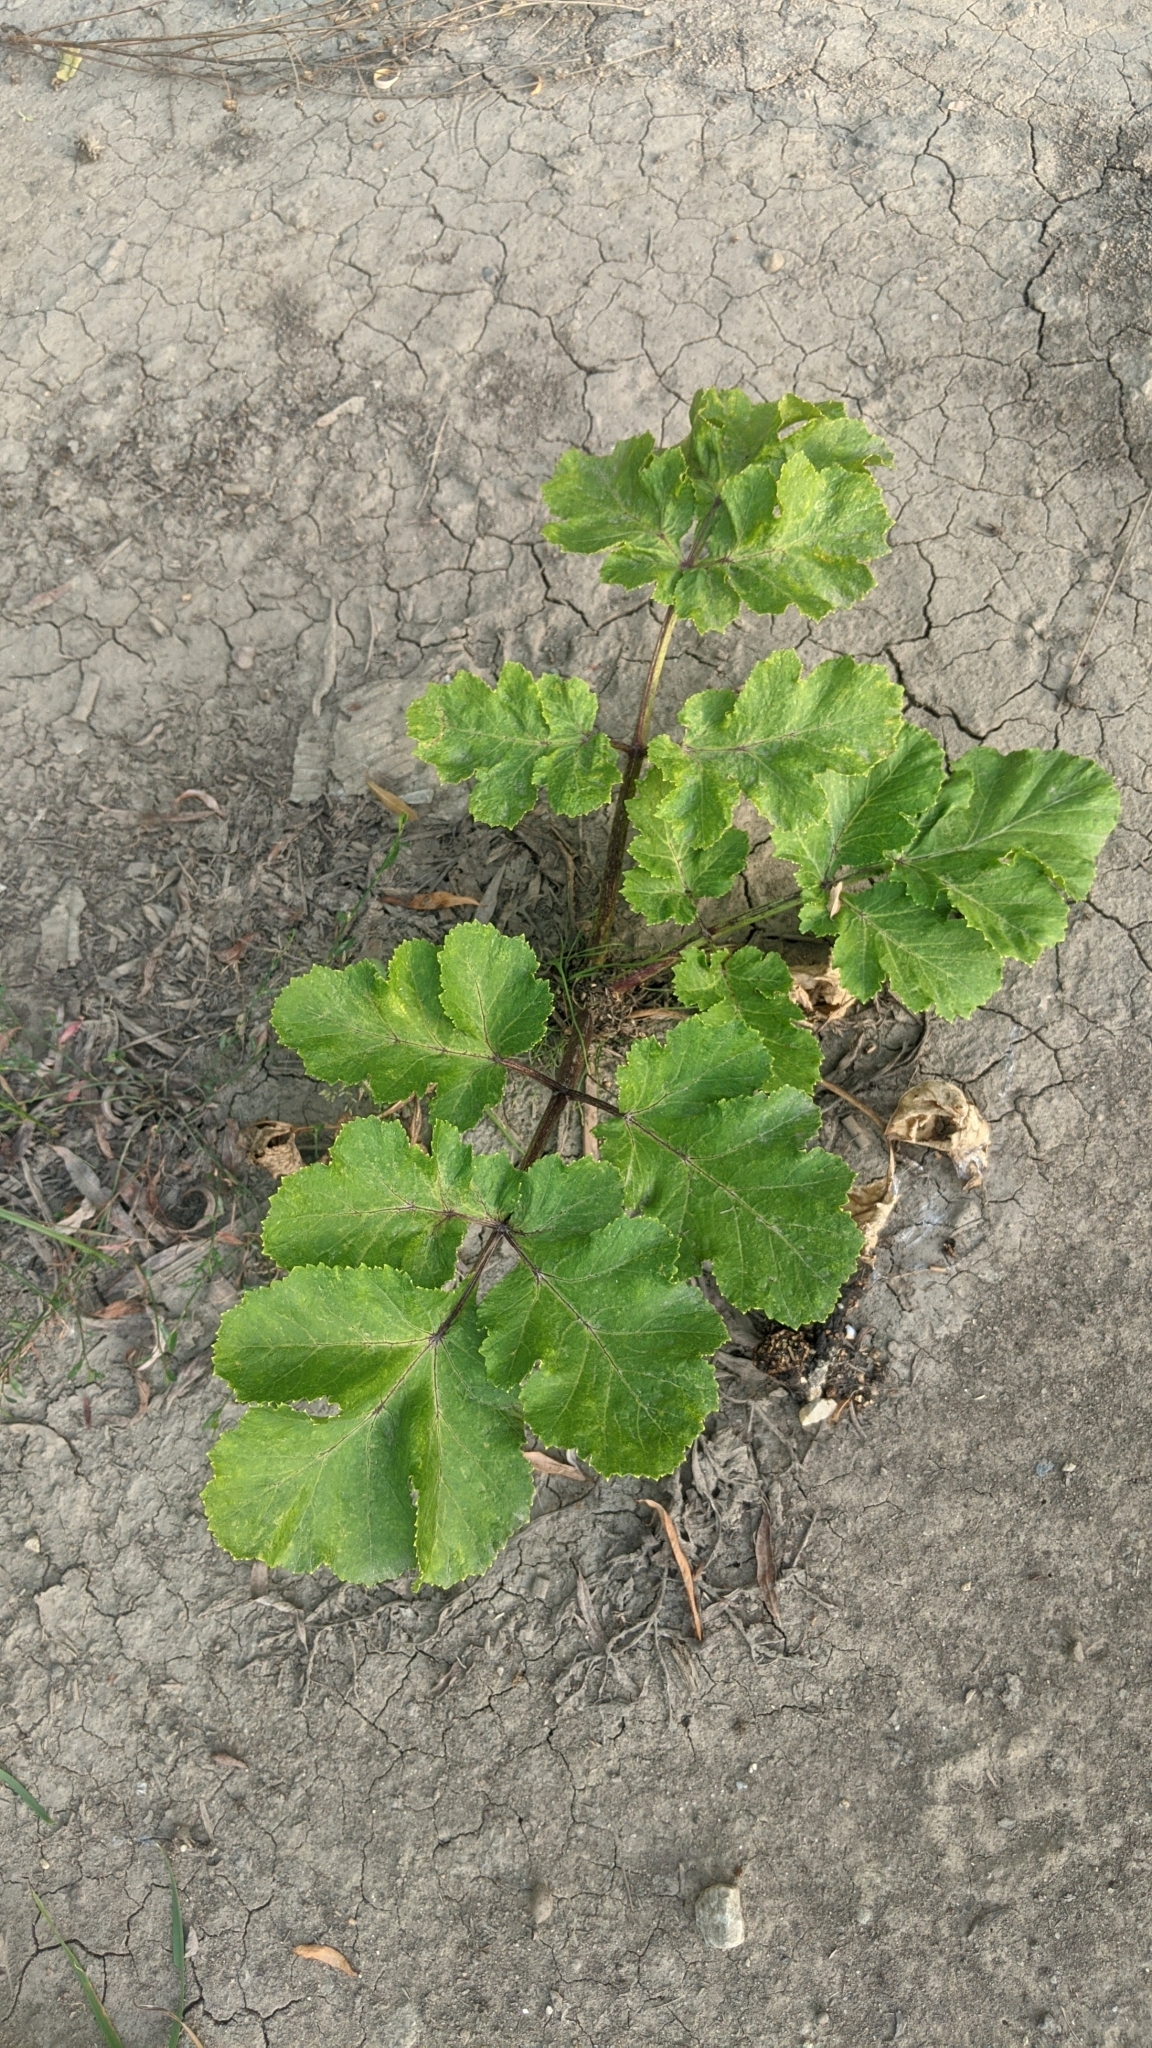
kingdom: Plantae
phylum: Tracheophyta
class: Magnoliopsida
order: Apiales
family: Apiaceae
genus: Heracleum
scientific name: Heracleum sosnowskyi
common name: Sosnowsky's hogweed
